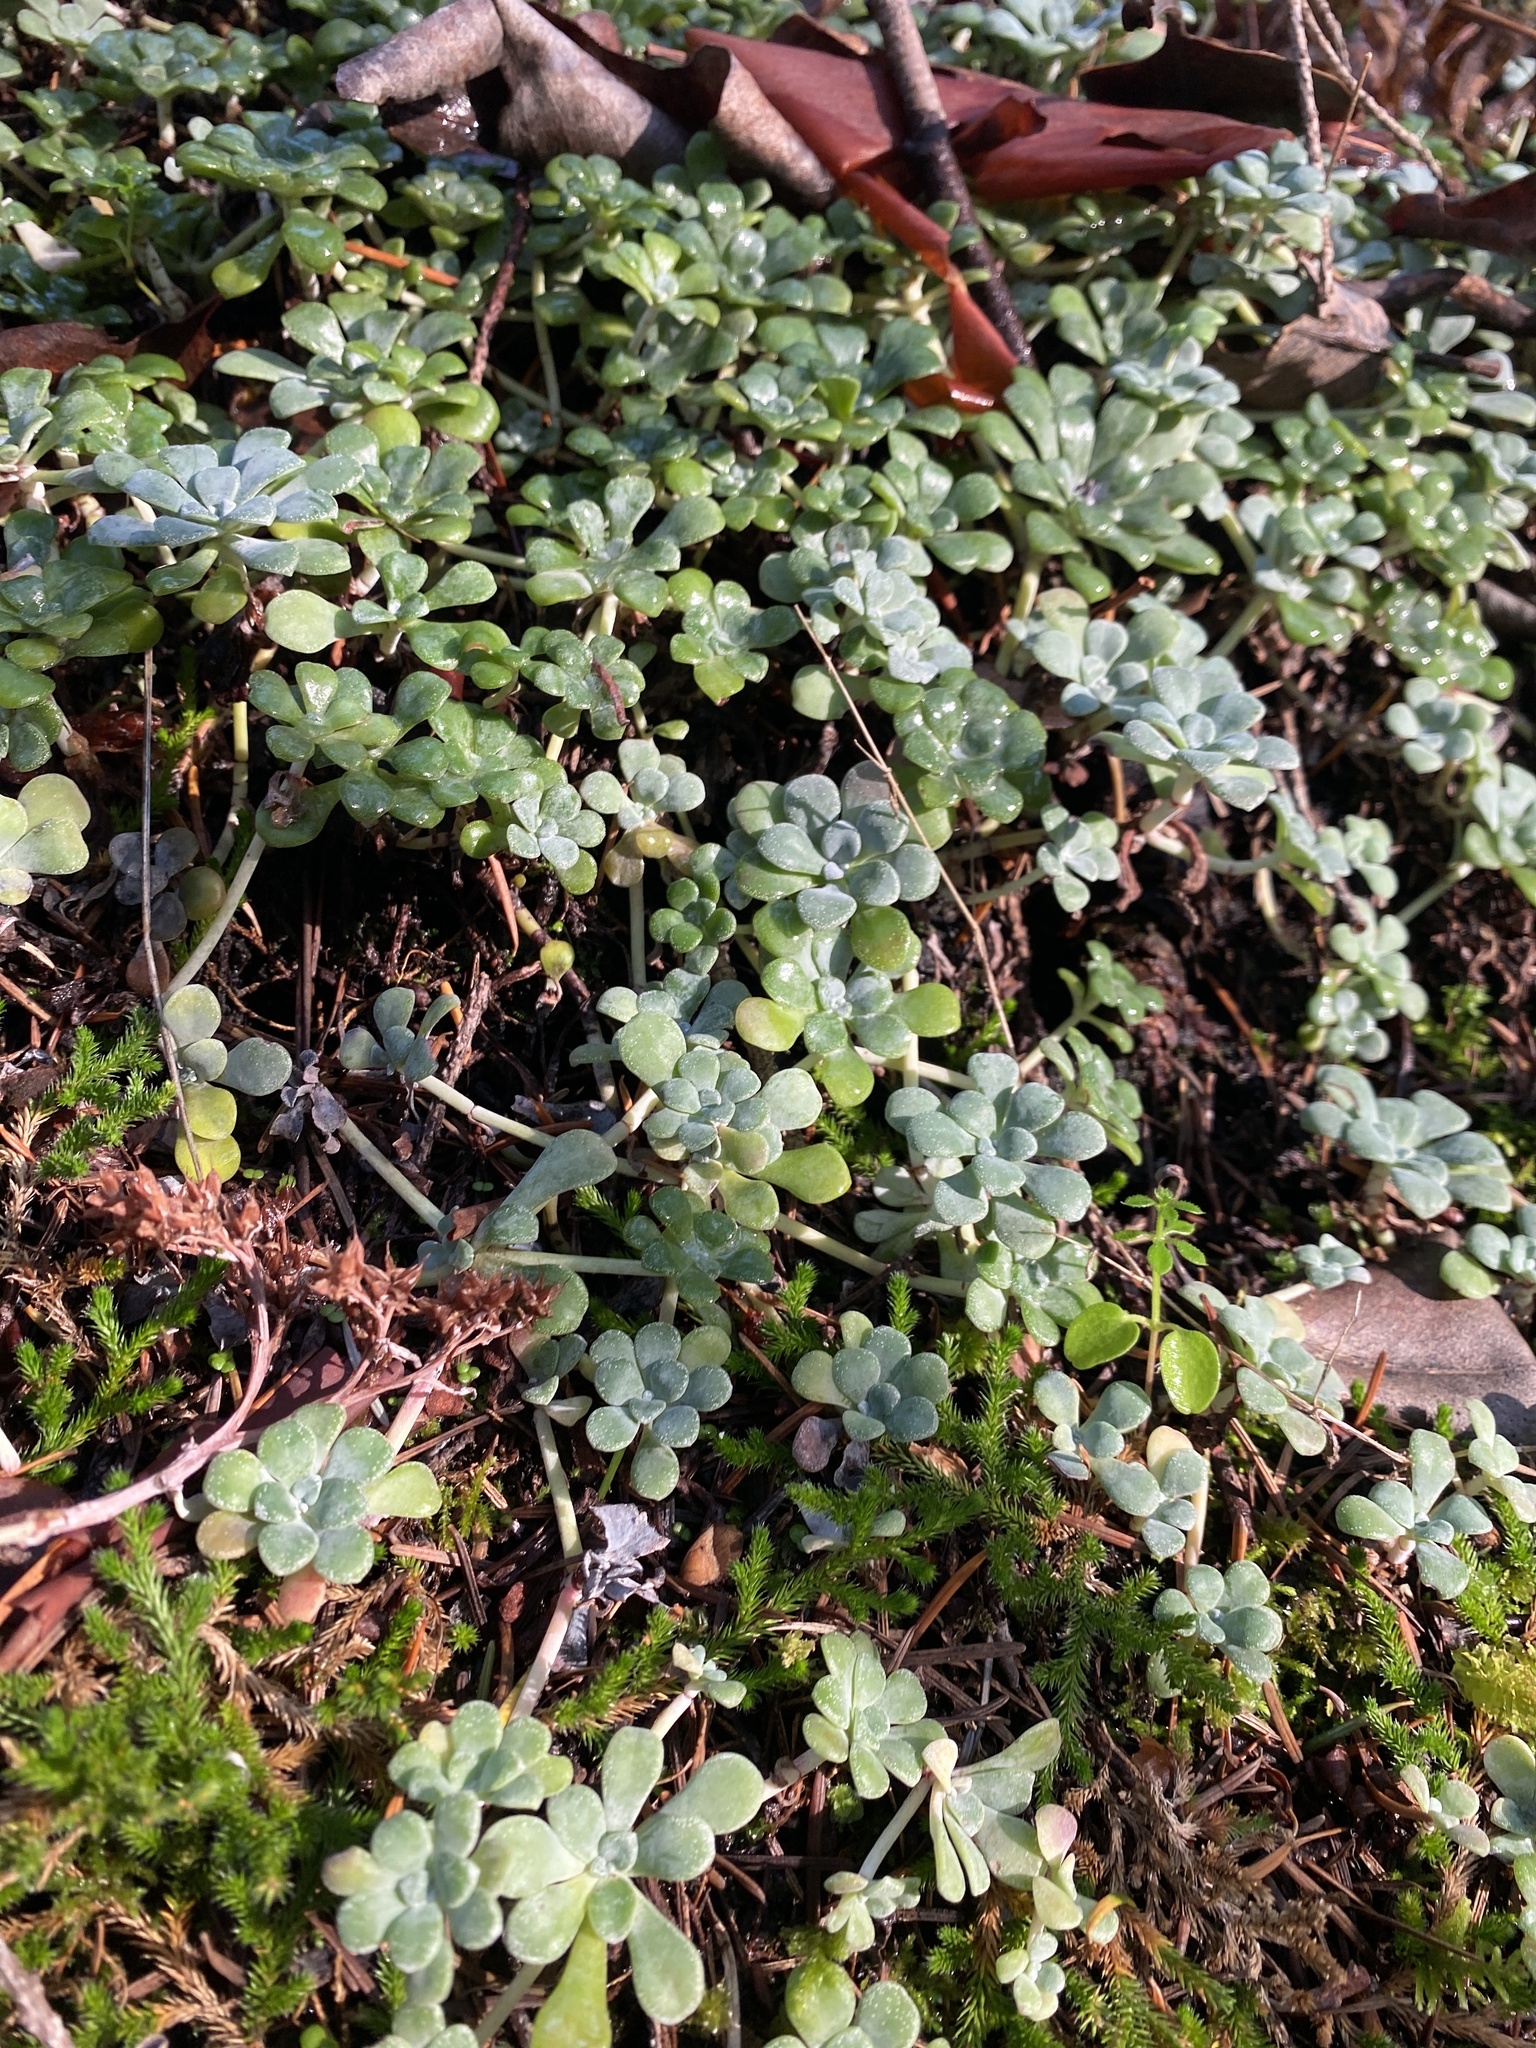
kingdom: Plantae
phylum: Tracheophyta
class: Magnoliopsida
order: Saxifragales
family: Crassulaceae
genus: Sedum
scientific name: Sedum spathulifolium
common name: Colorado stonecrop
